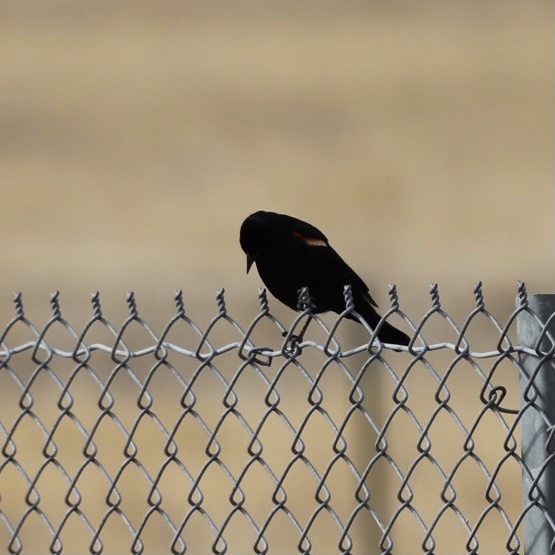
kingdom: Animalia
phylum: Chordata
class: Aves
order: Passeriformes
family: Icteridae
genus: Agelaius
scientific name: Agelaius phoeniceus
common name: Red-winged blackbird
